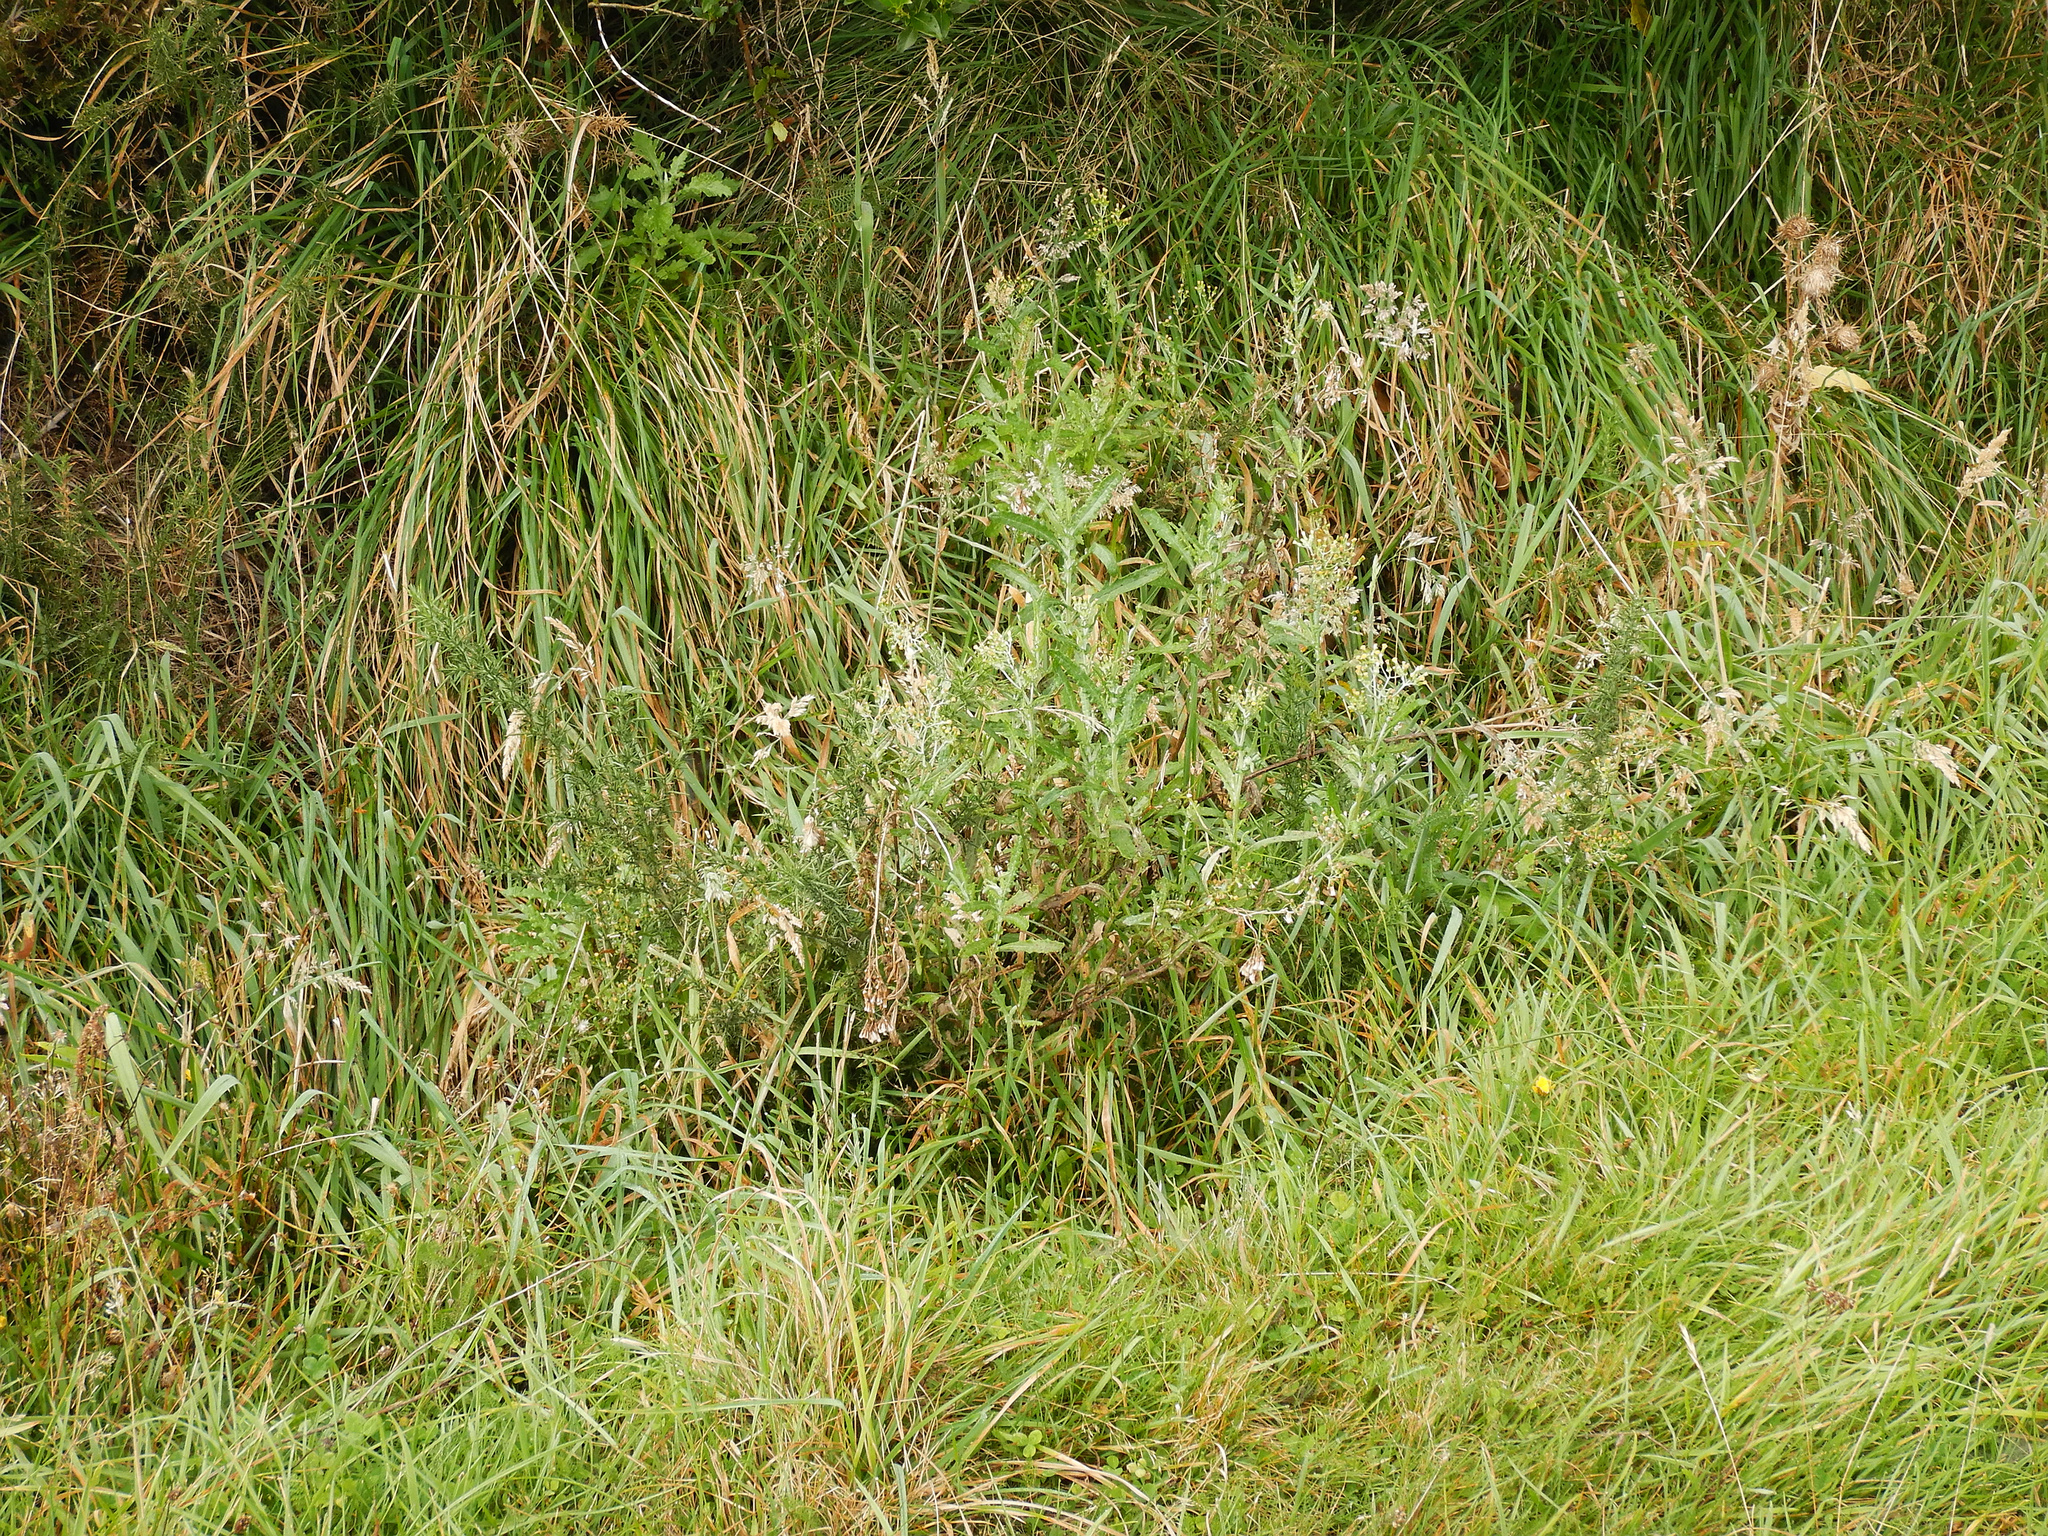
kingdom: Plantae
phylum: Tracheophyta
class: Magnoliopsida
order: Asterales
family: Asteraceae
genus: Senecio
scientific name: Senecio glomeratus
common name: Cutleaf burnweed
